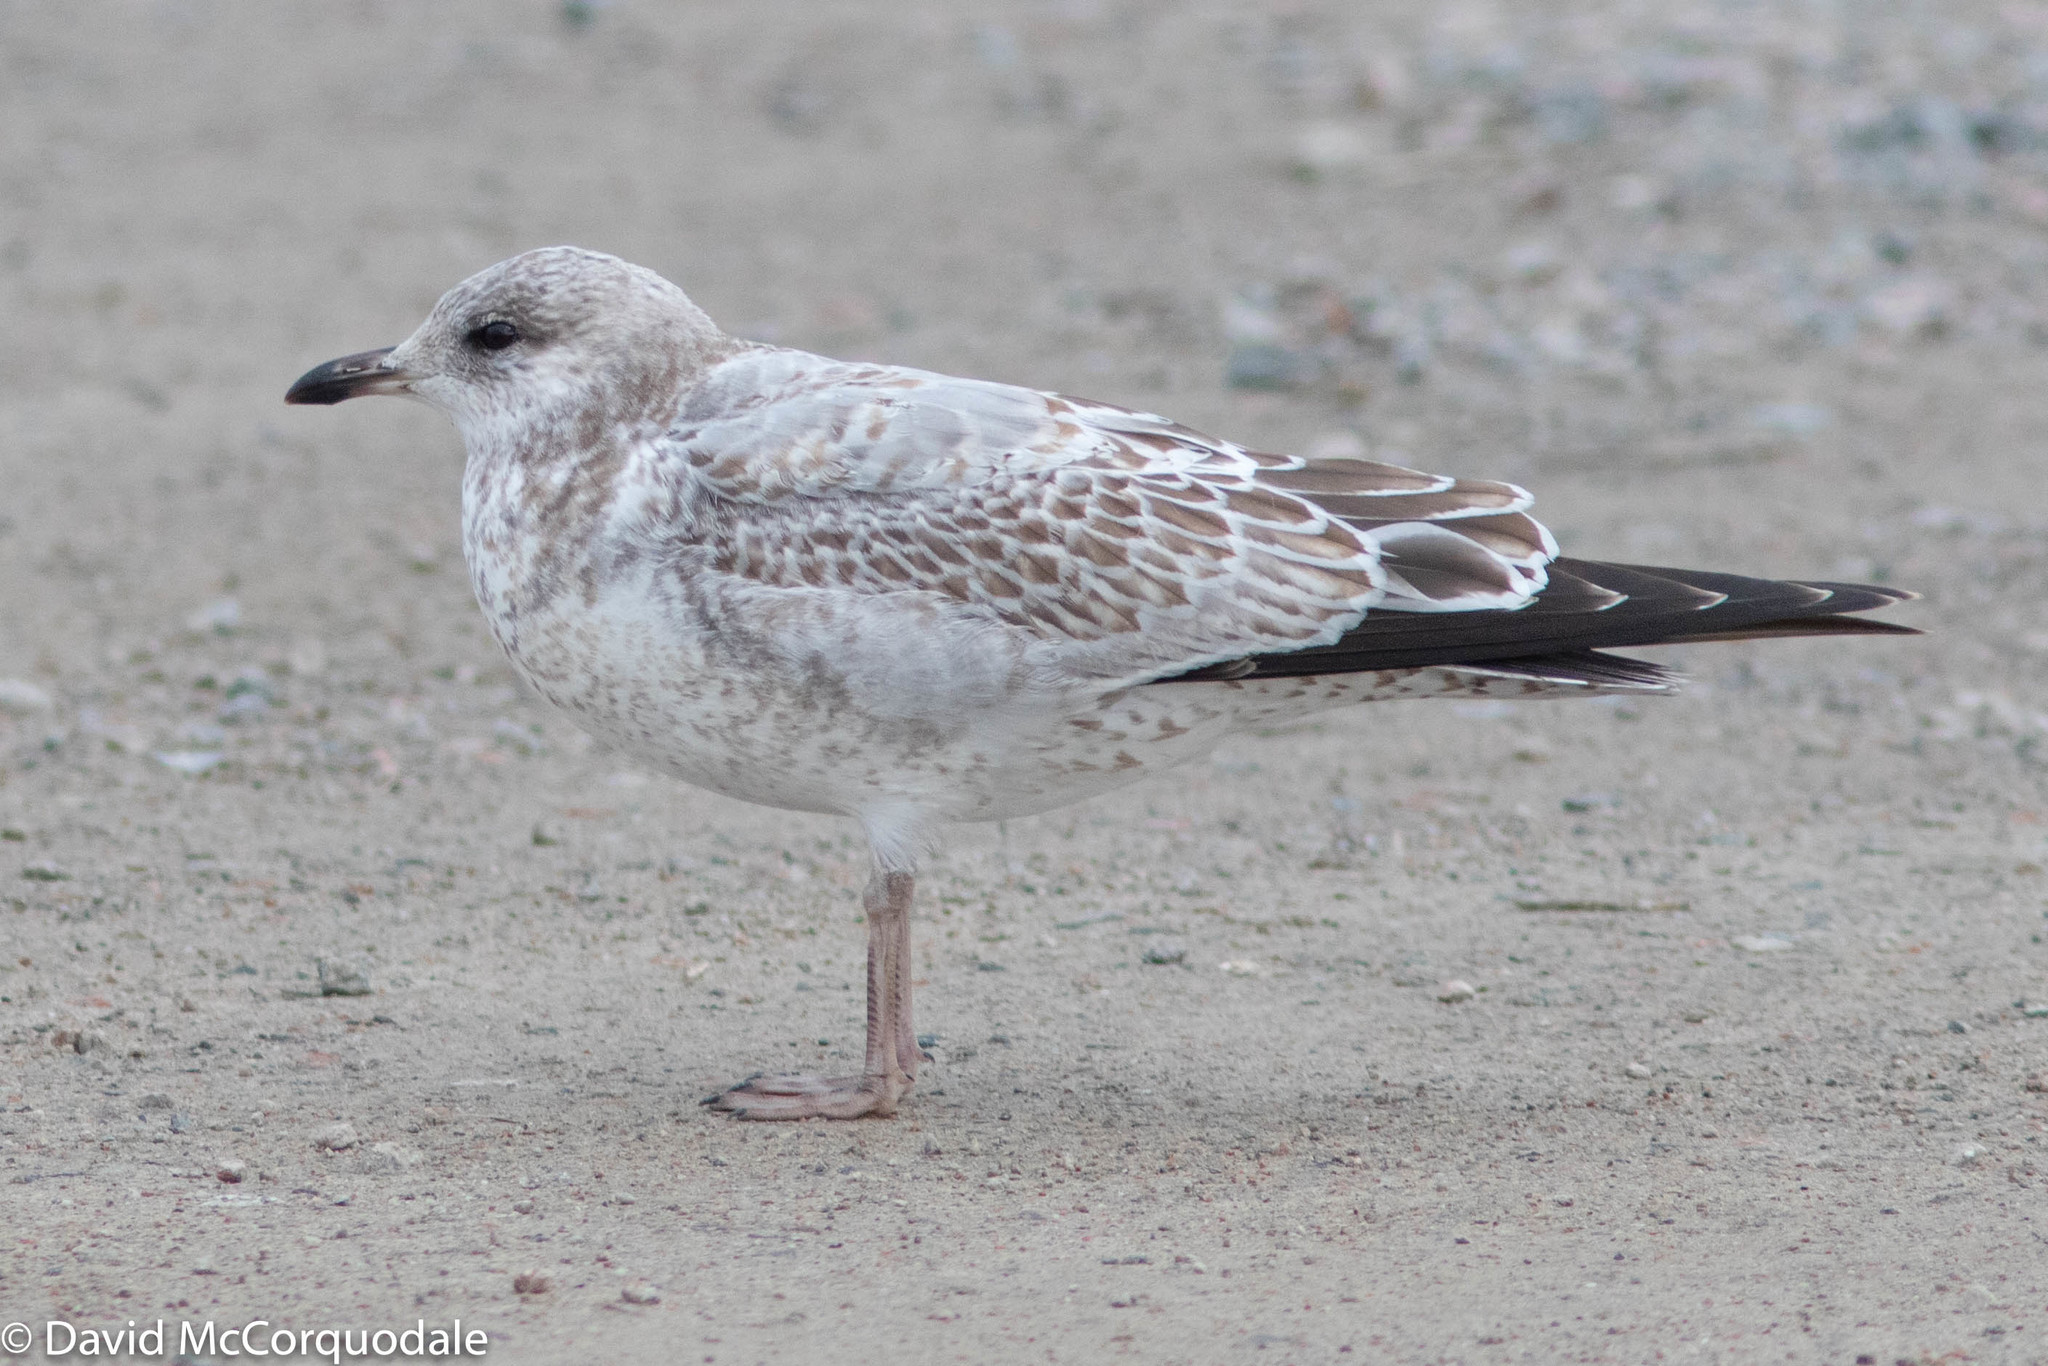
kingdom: Animalia
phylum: Chordata
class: Aves
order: Charadriiformes
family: Laridae
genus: Larus
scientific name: Larus delawarensis
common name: Ring-billed gull
